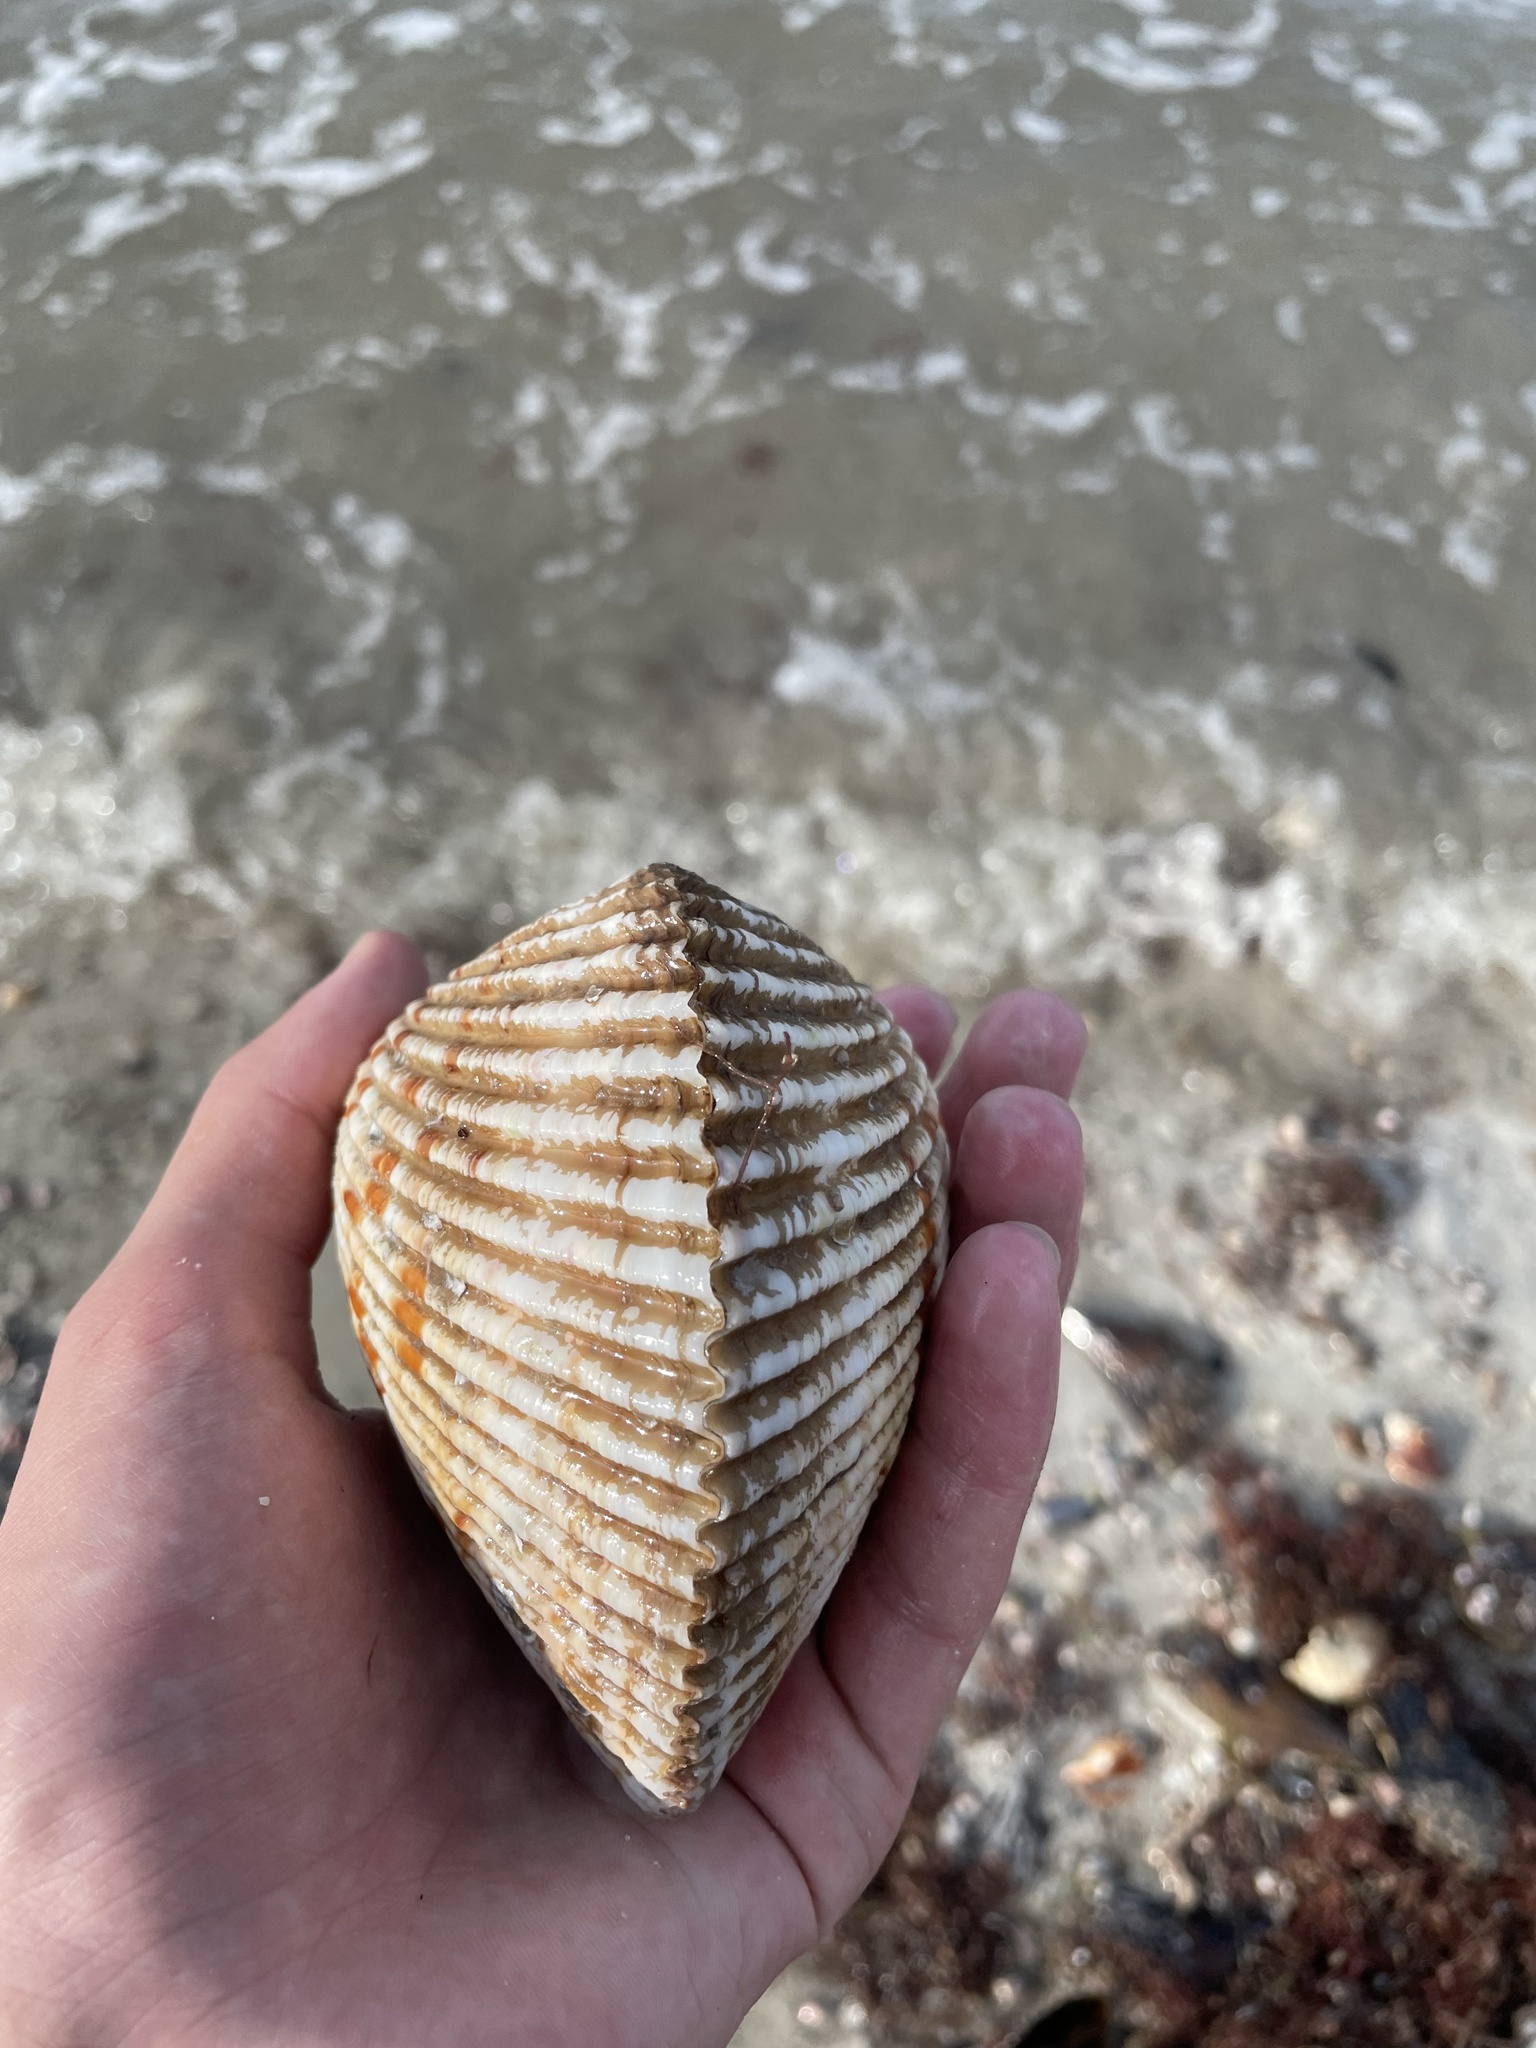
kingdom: Animalia
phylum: Mollusca
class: Bivalvia
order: Cardiida
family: Cardiidae
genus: Dinocardium
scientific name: Dinocardium robustum
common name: Atlantic giant cockle
